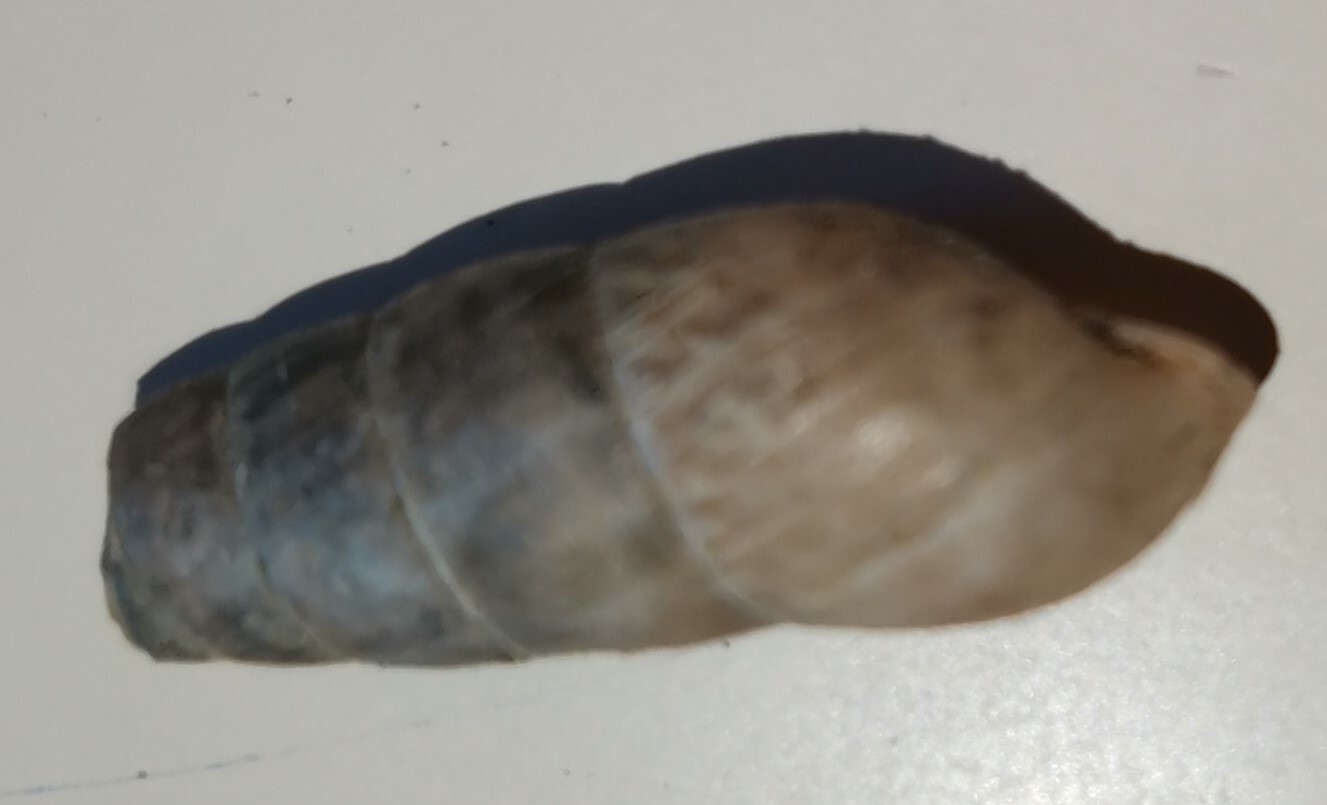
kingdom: Animalia
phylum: Mollusca
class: Gastropoda
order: Stylommatophora
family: Achatinidae
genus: Rumina
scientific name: Rumina decollata
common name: Decollate snail
